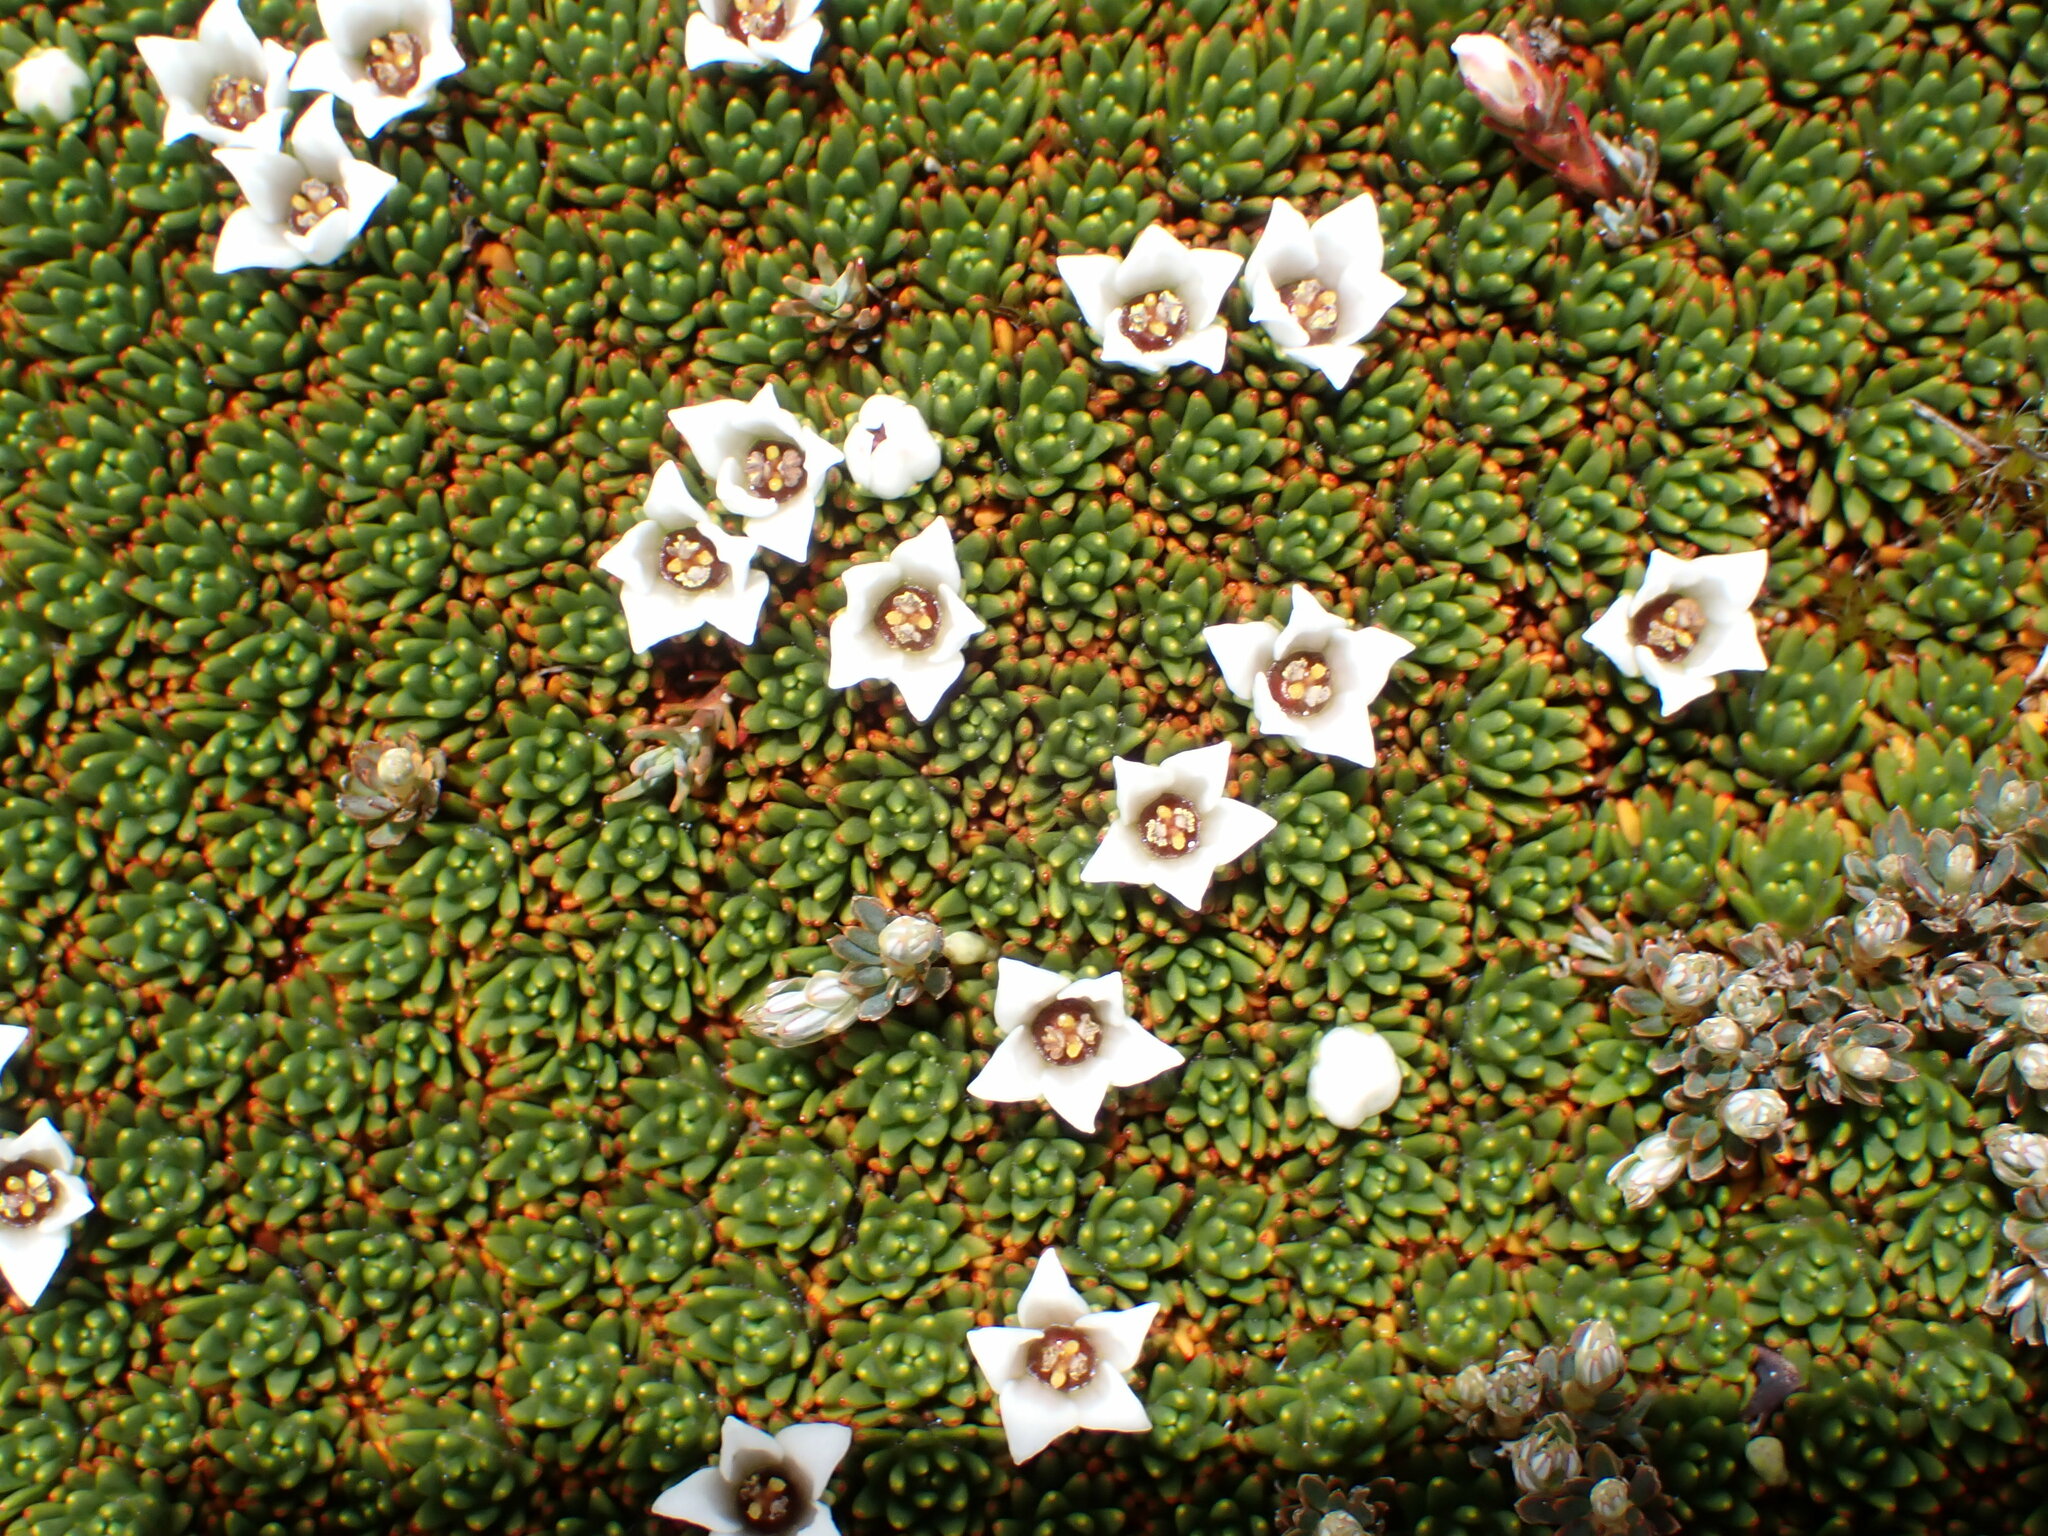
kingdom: Plantae
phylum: Tracheophyta
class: Magnoliopsida
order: Asterales
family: Stylidiaceae
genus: Donatia
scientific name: Donatia novae-zelandiae
